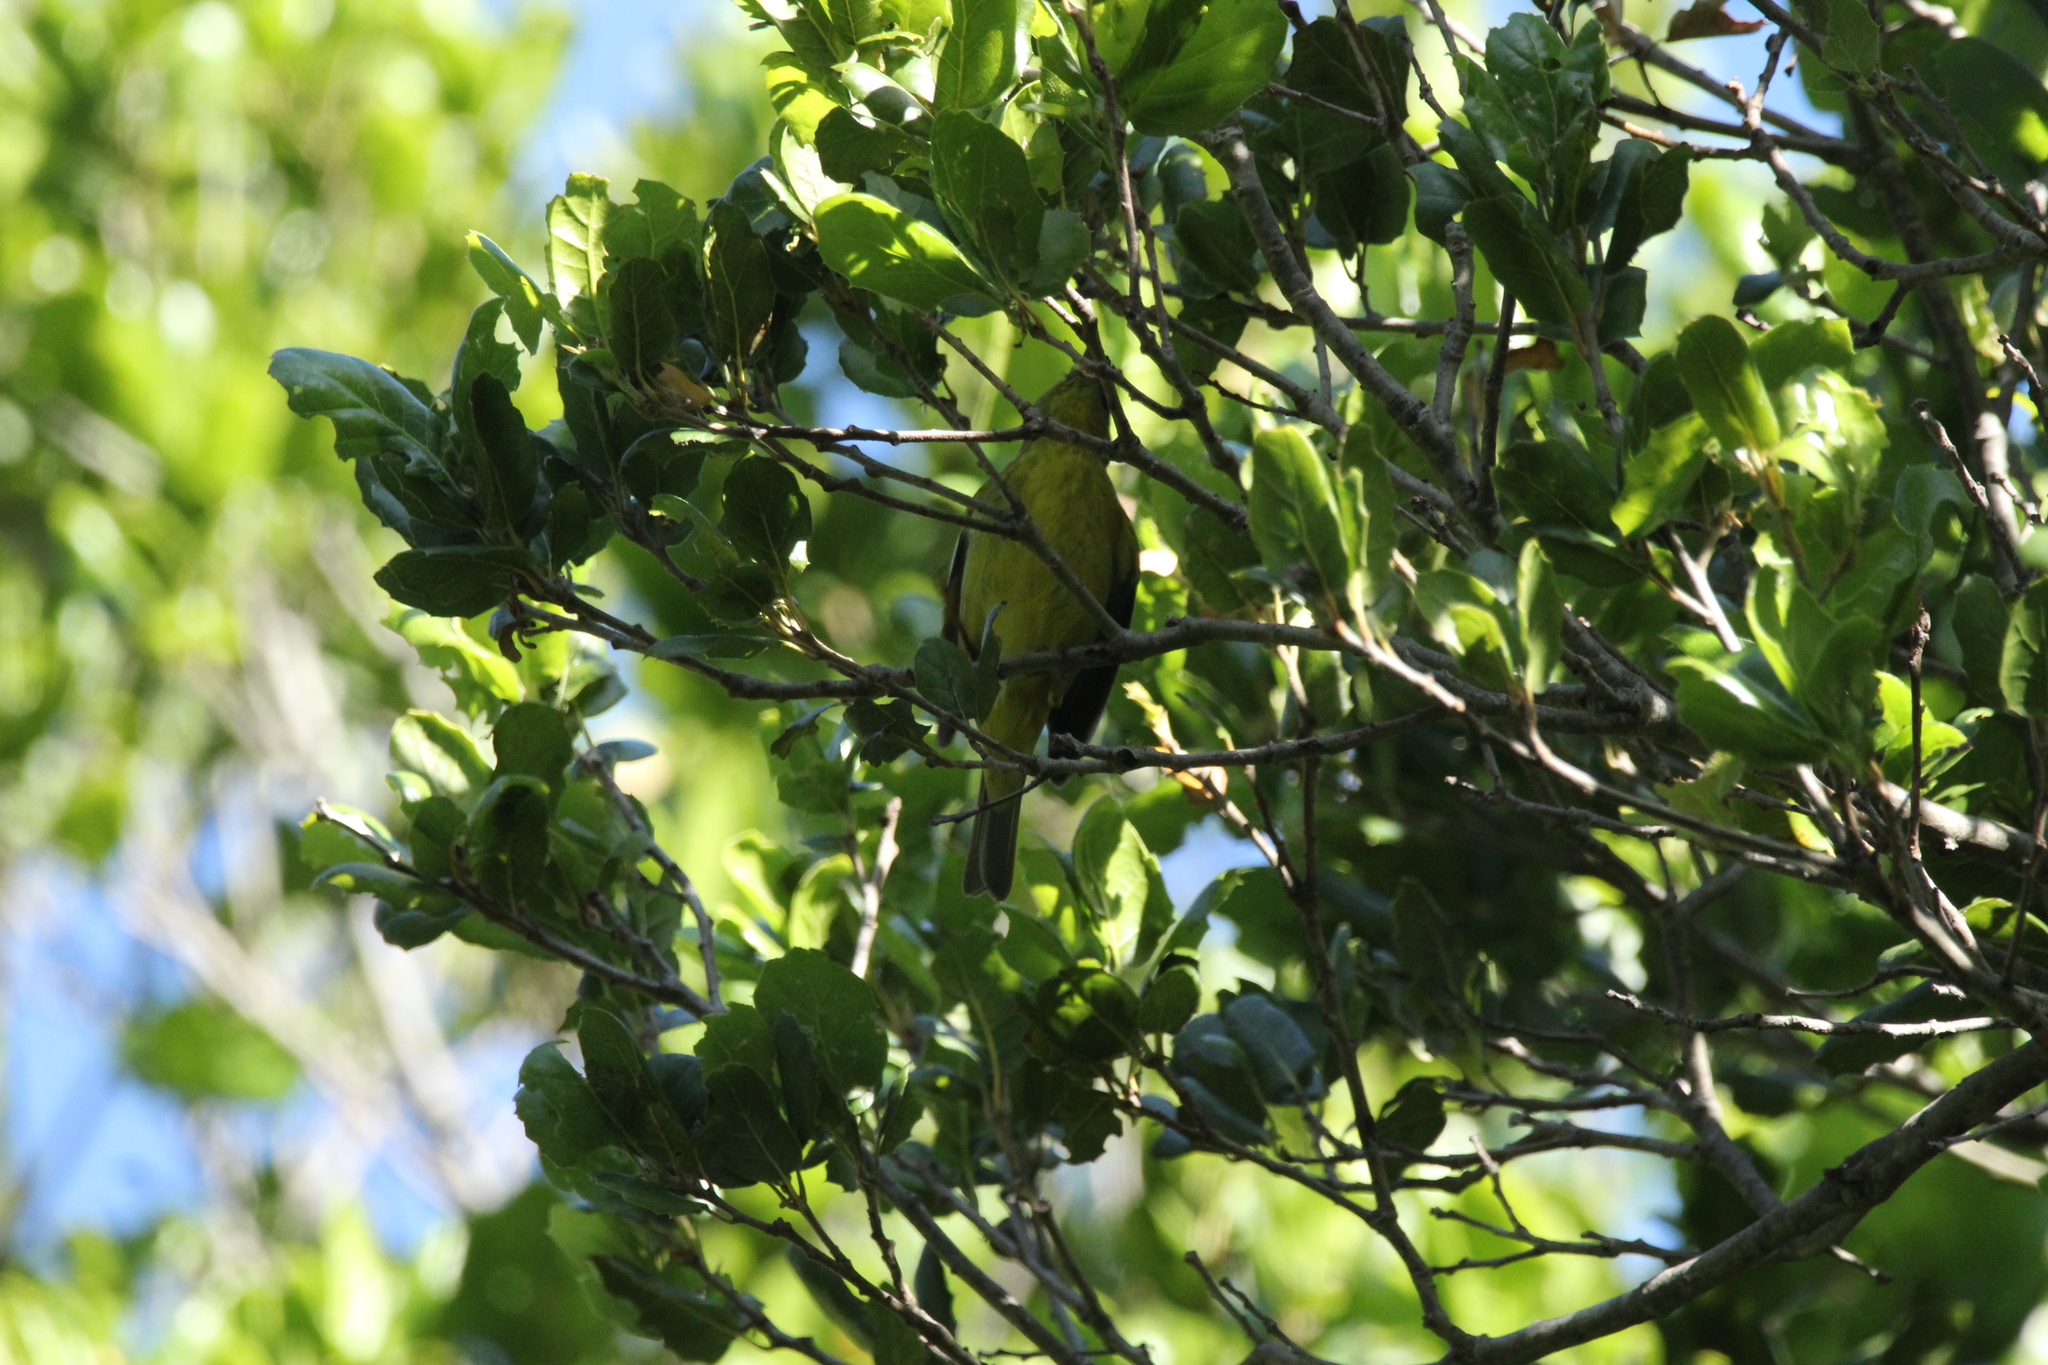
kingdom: Animalia
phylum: Chordata
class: Aves
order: Passeriformes
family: Parulidae
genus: Leiothlypis
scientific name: Leiothlypis celata
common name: Orange-crowned warbler
